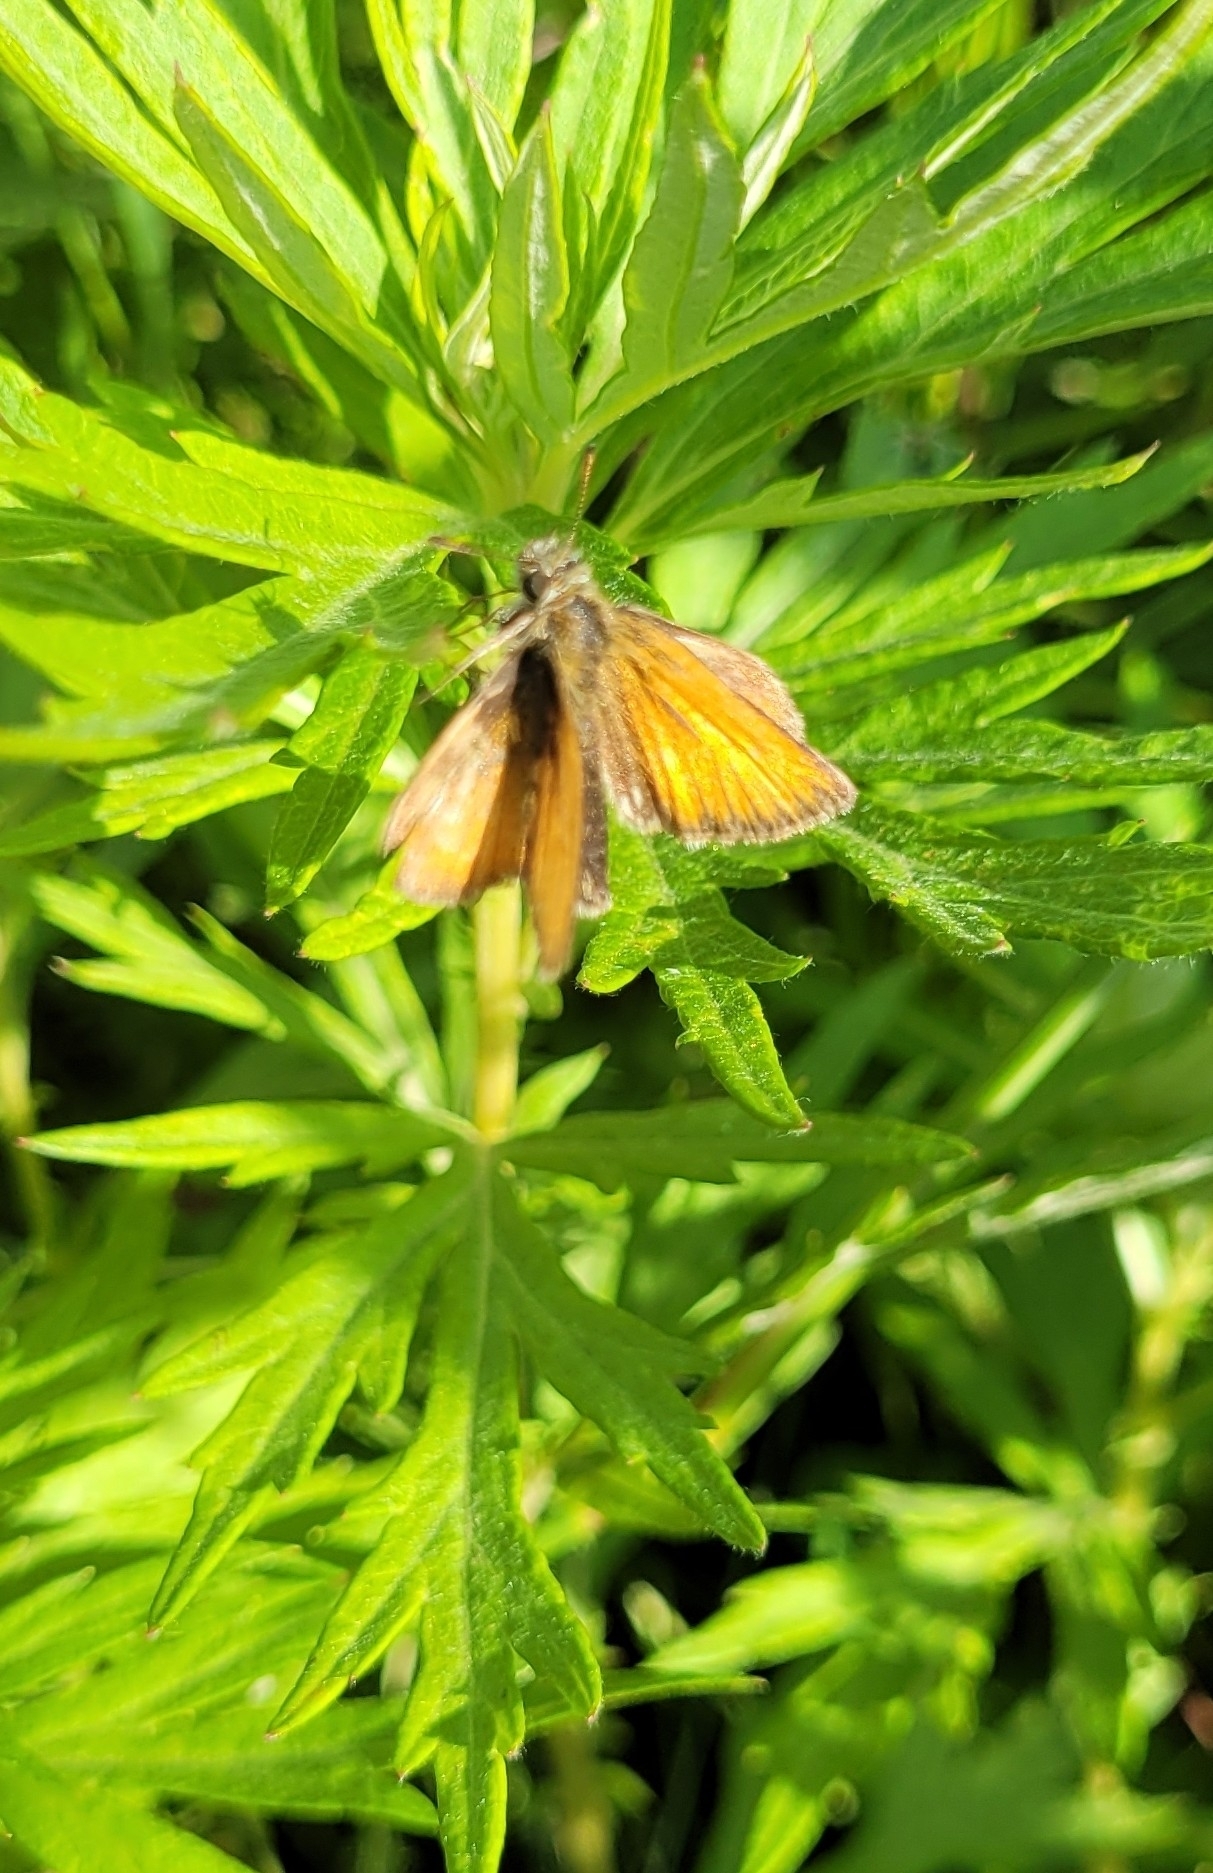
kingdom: Animalia
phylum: Arthropoda
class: Insecta
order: Lepidoptera
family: Hesperiidae
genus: Thymelicus
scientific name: Thymelicus lineola
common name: Essex skipper
